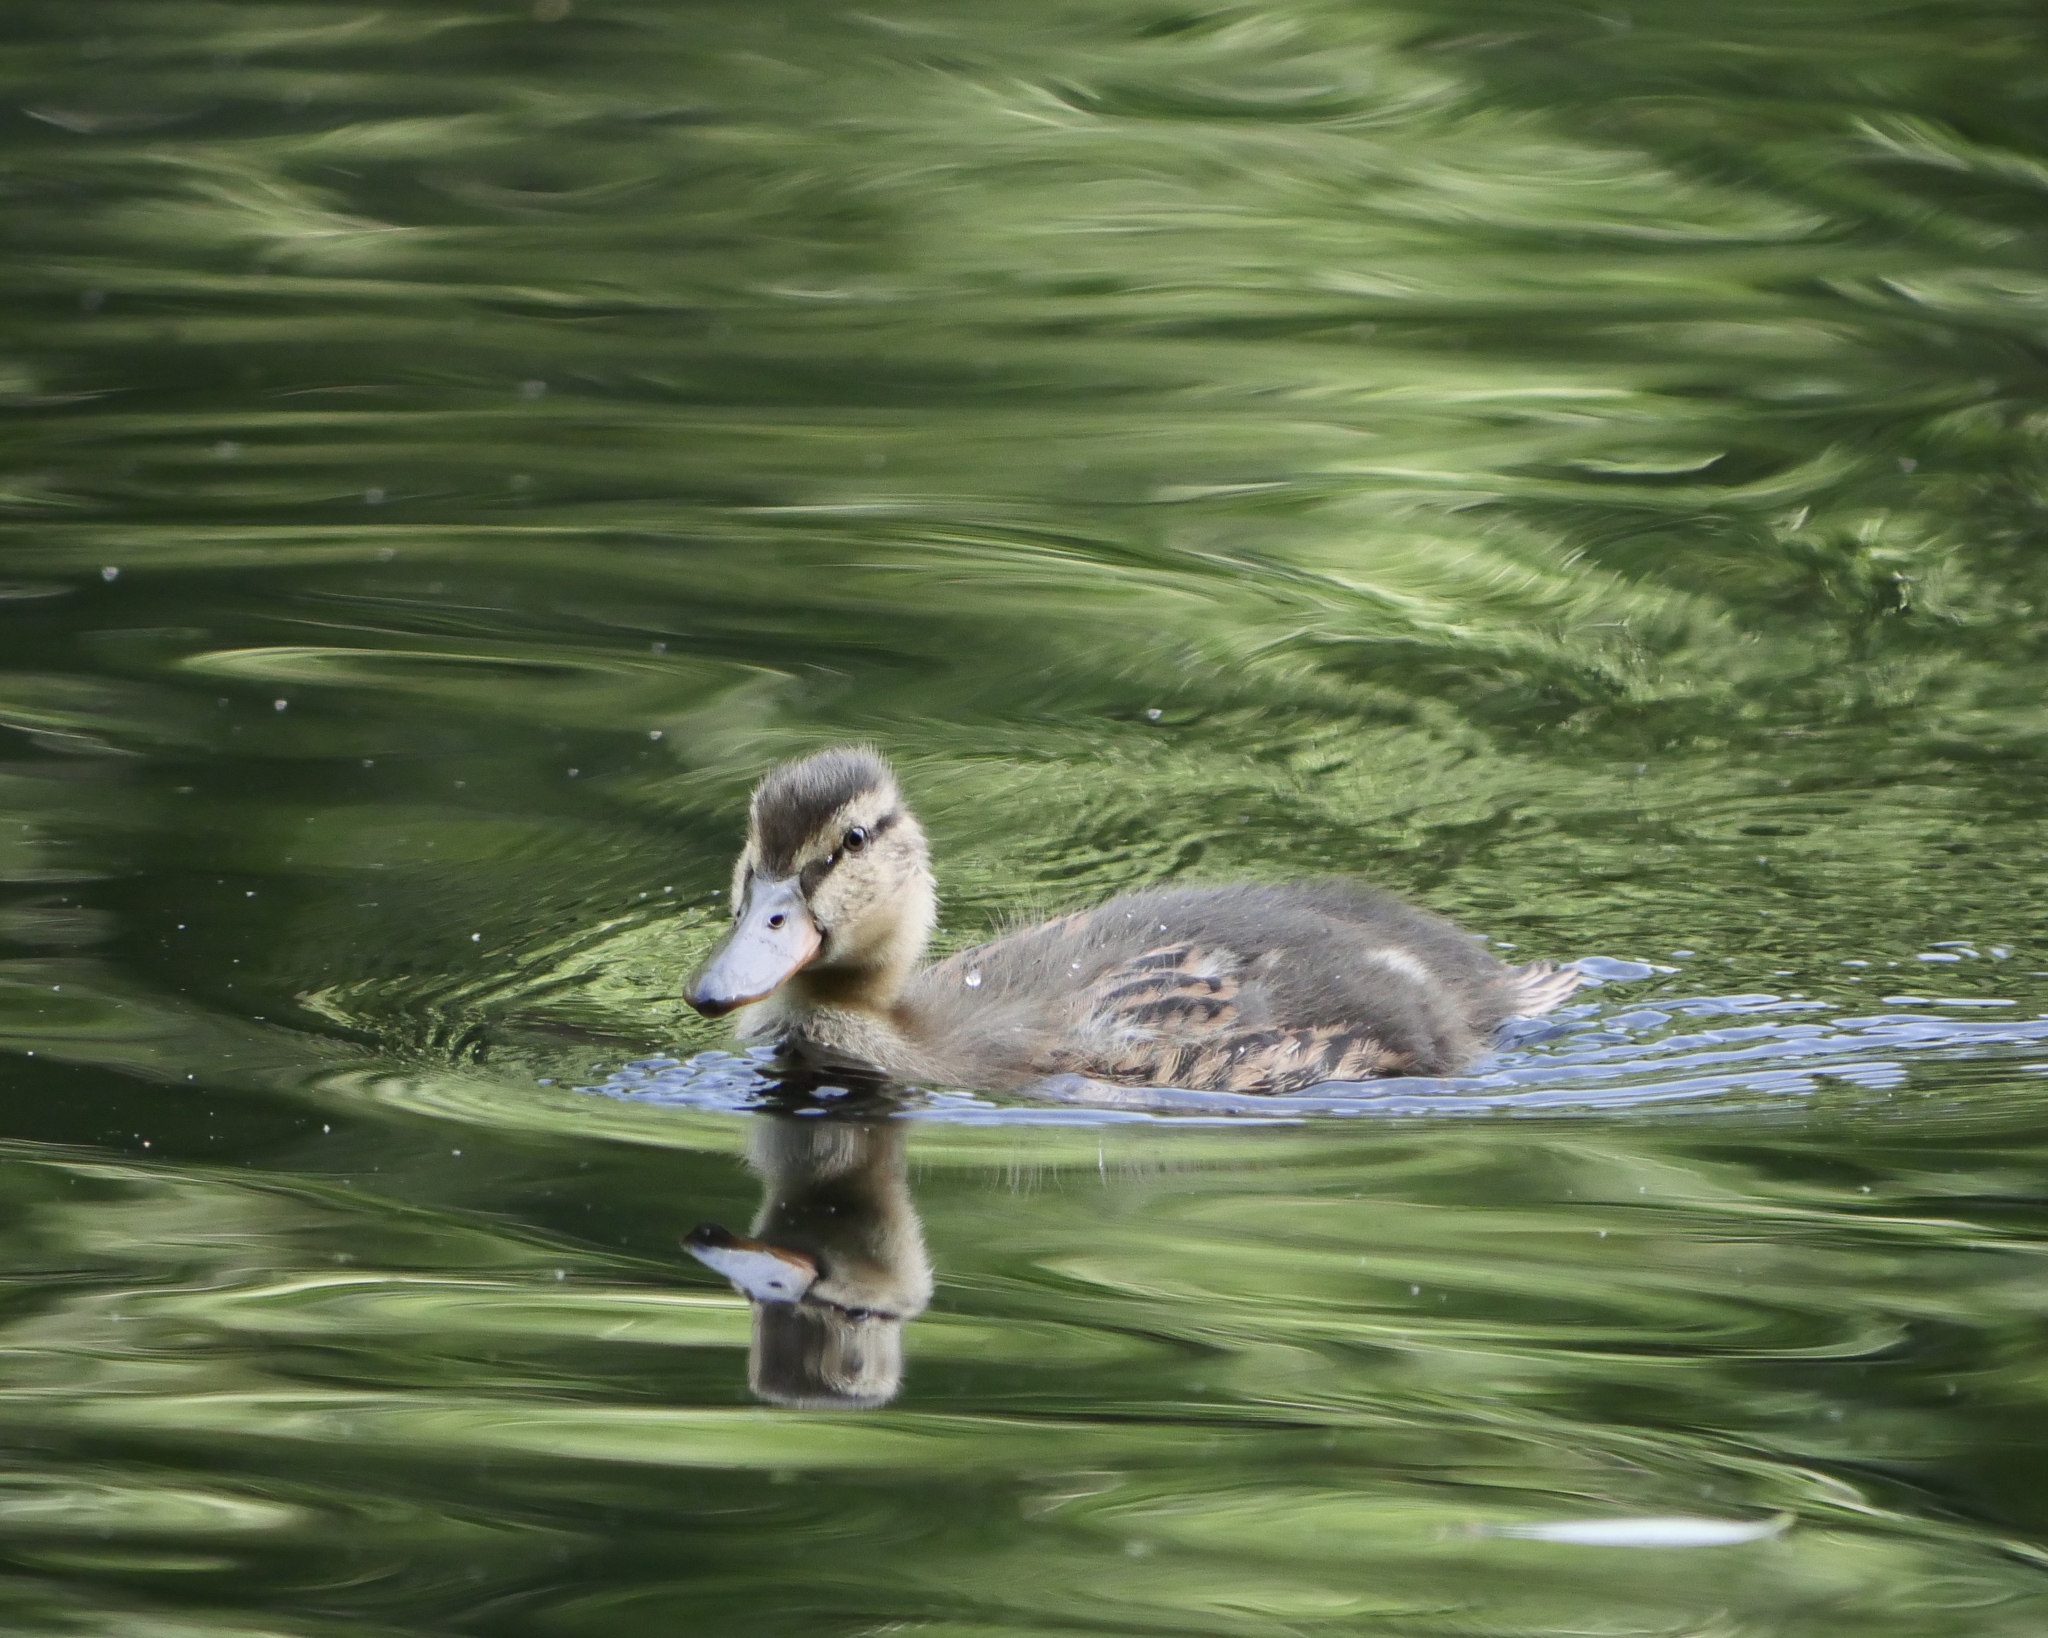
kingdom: Animalia
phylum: Chordata
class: Aves
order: Anseriformes
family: Anatidae
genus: Anas
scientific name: Anas platyrhynchos
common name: Mallard
